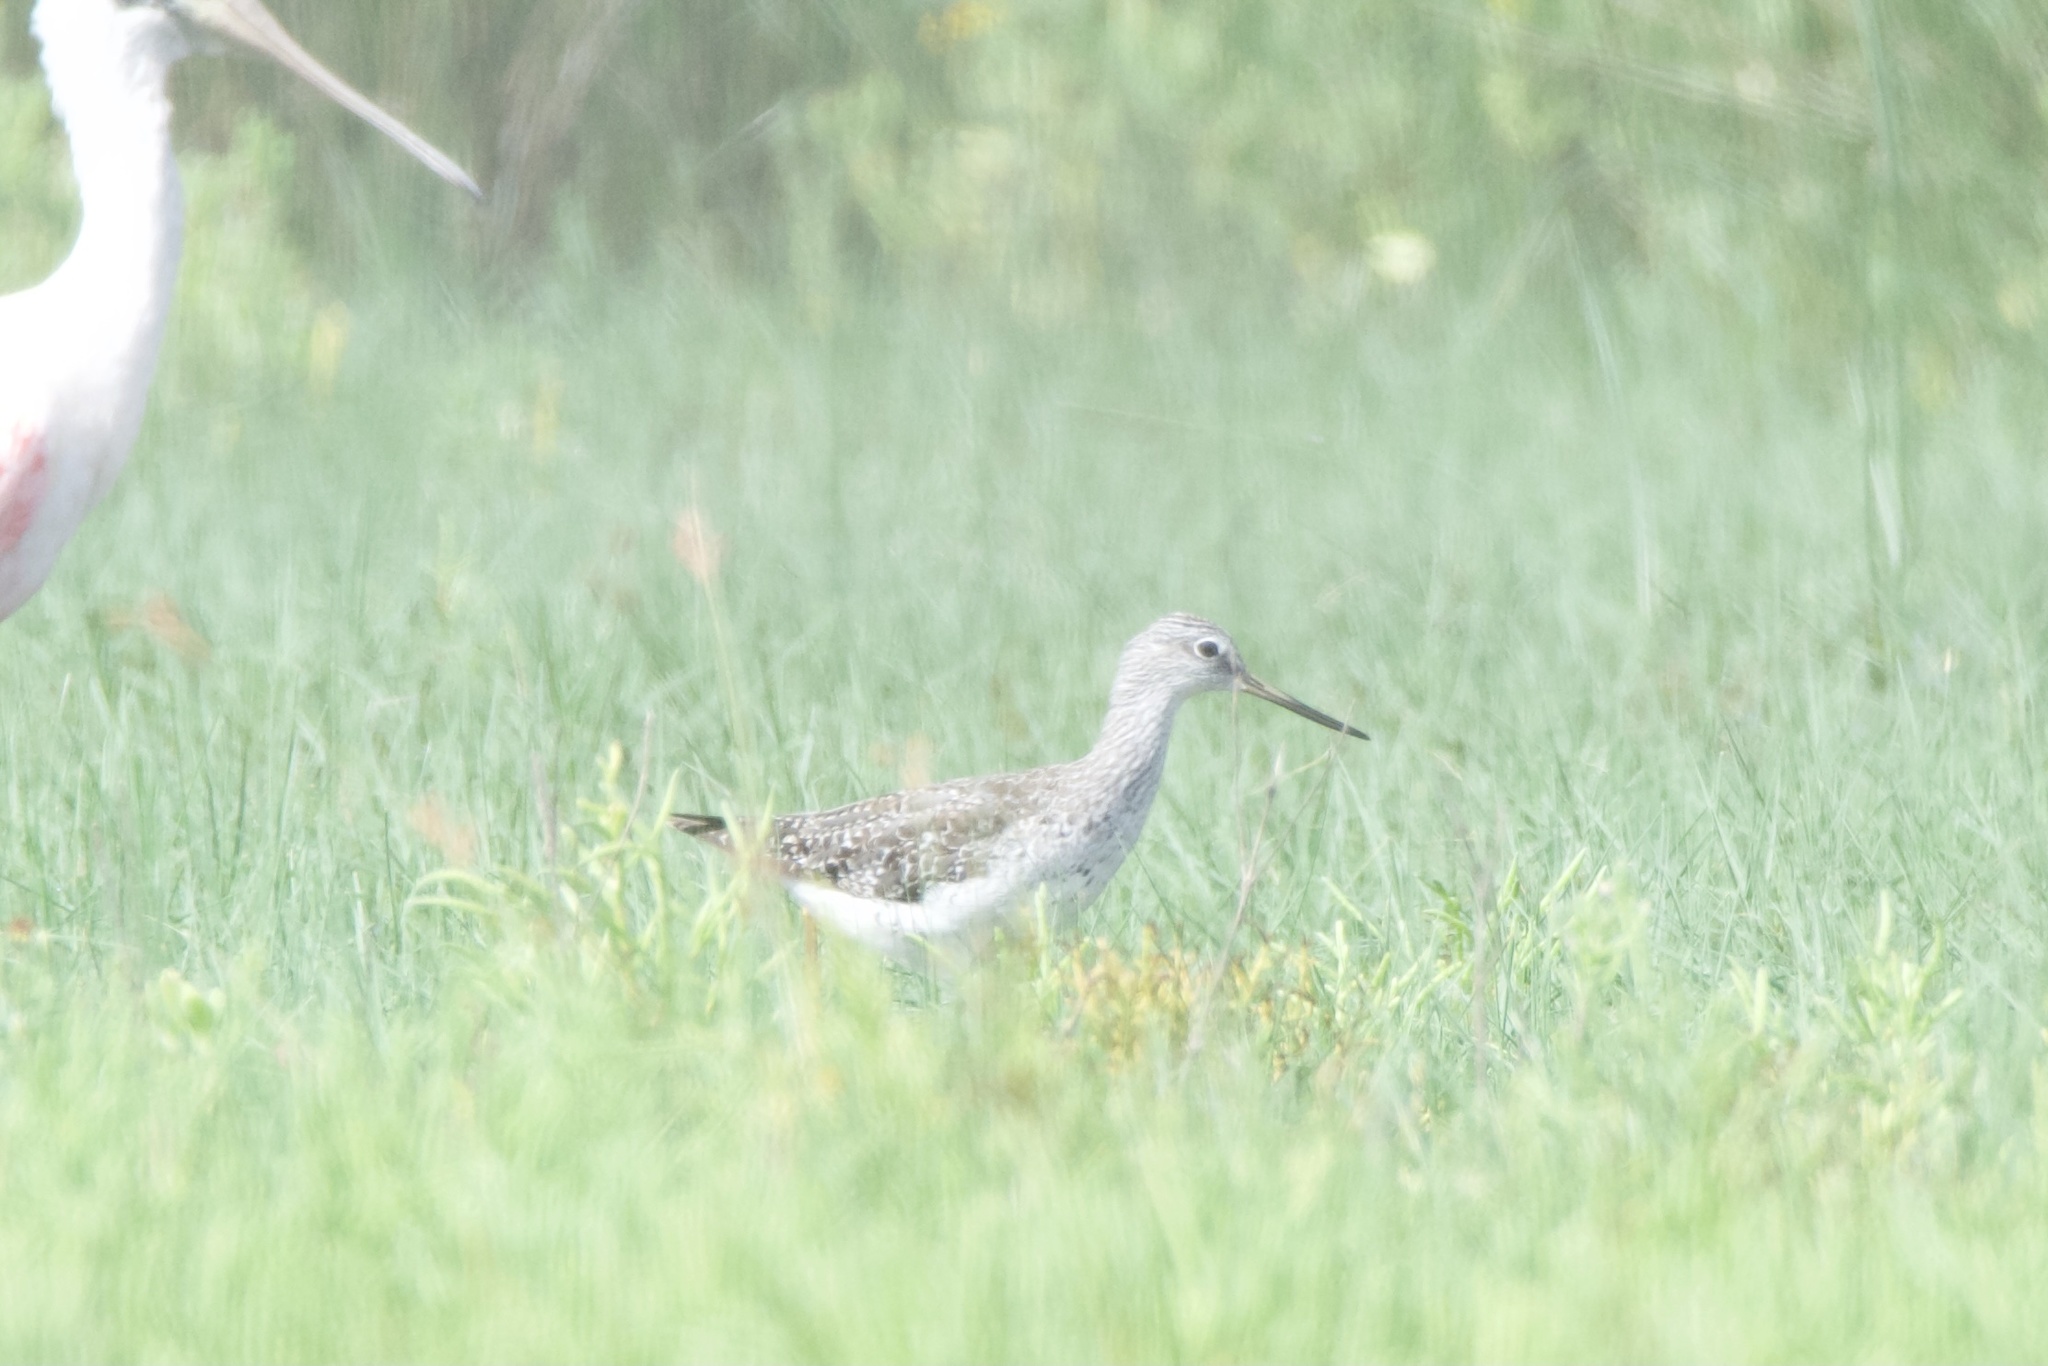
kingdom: Animalia
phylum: Chordata
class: Aves
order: Charadriiformes
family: Scolopacidae
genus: Tringa
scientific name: Tringa melanoleuca
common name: Greater yellowlegs
